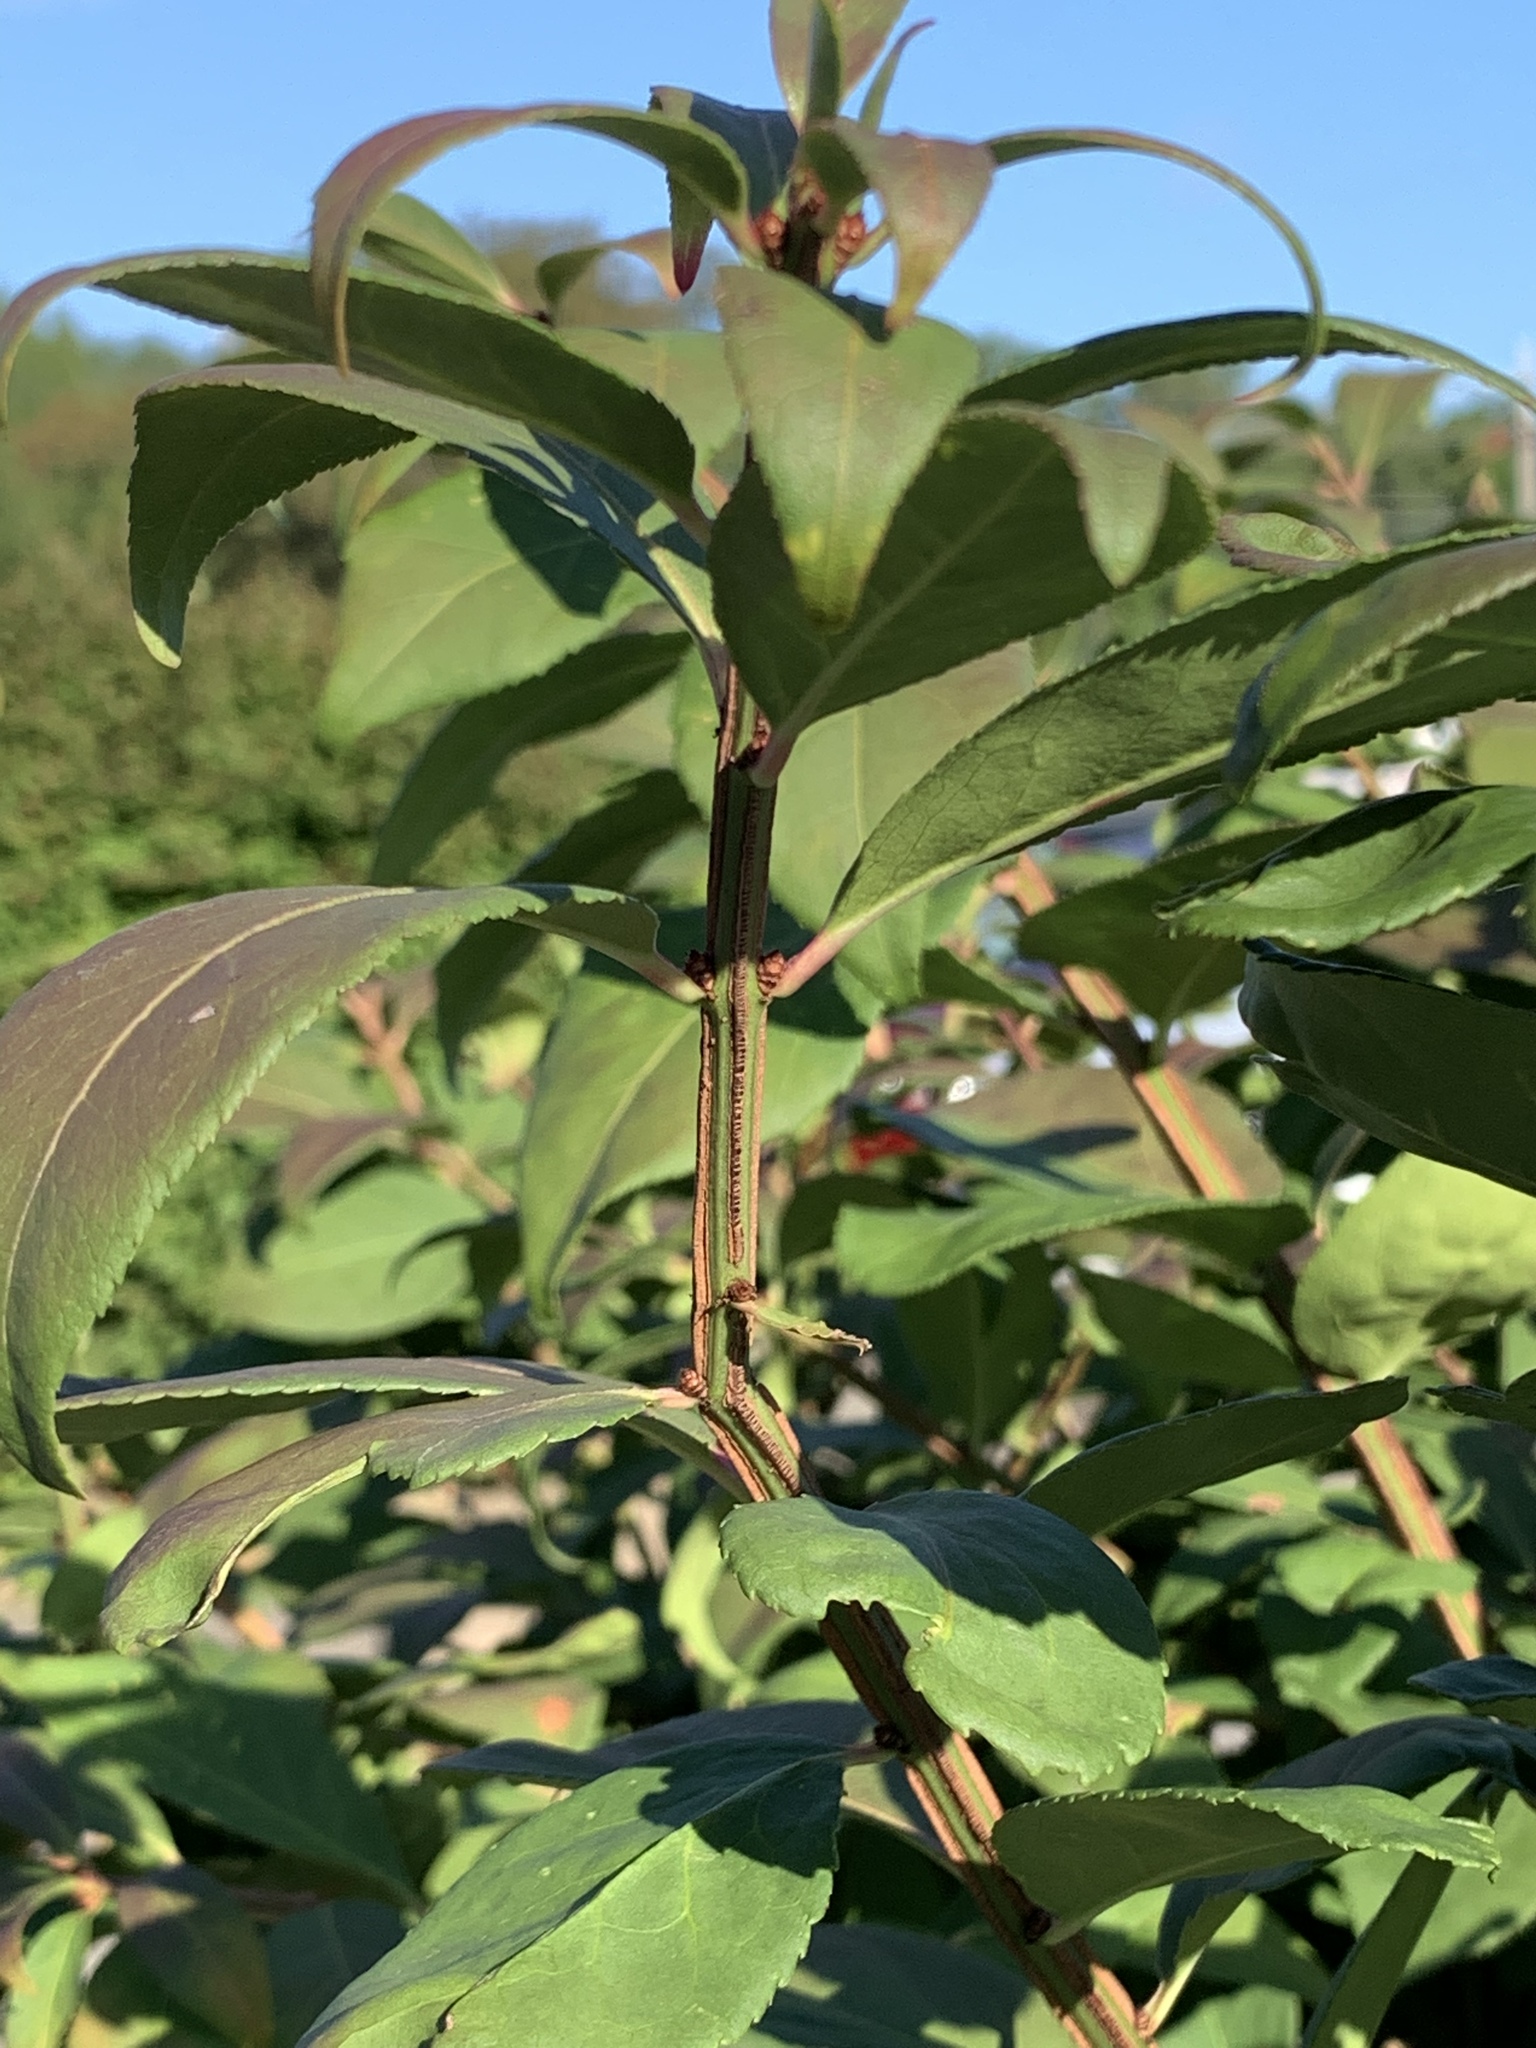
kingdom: Plantae
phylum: Tracheophyta
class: Magnoliopsida
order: Celastrales
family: Celastraceae
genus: Euonymus
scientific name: Euonymus alatus
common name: Winged euonymus
